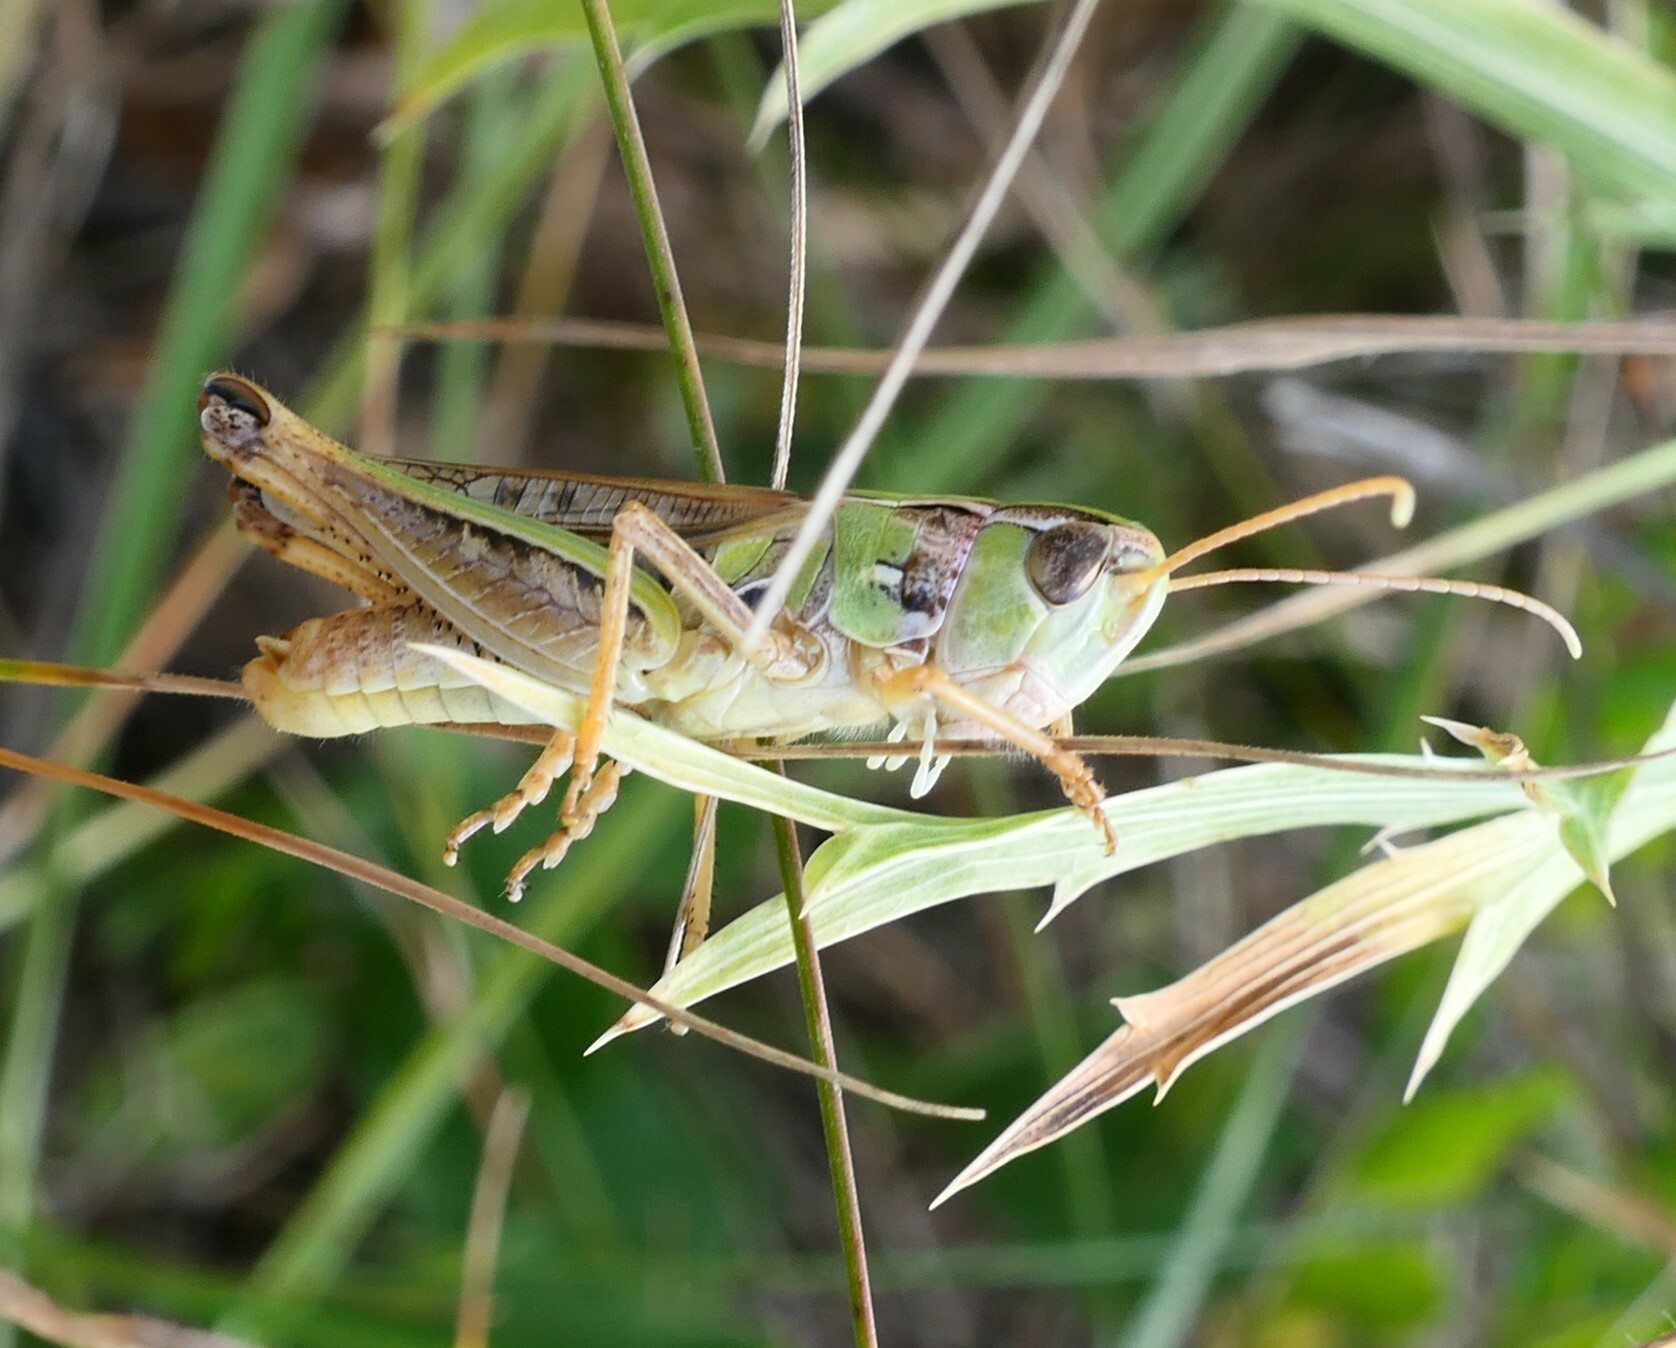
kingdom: Animalia
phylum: Arthropoda
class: Insecta
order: Orthoptera
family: Acrididae
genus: Stenobothrus
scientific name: Stenobothrus nigromaculatus
